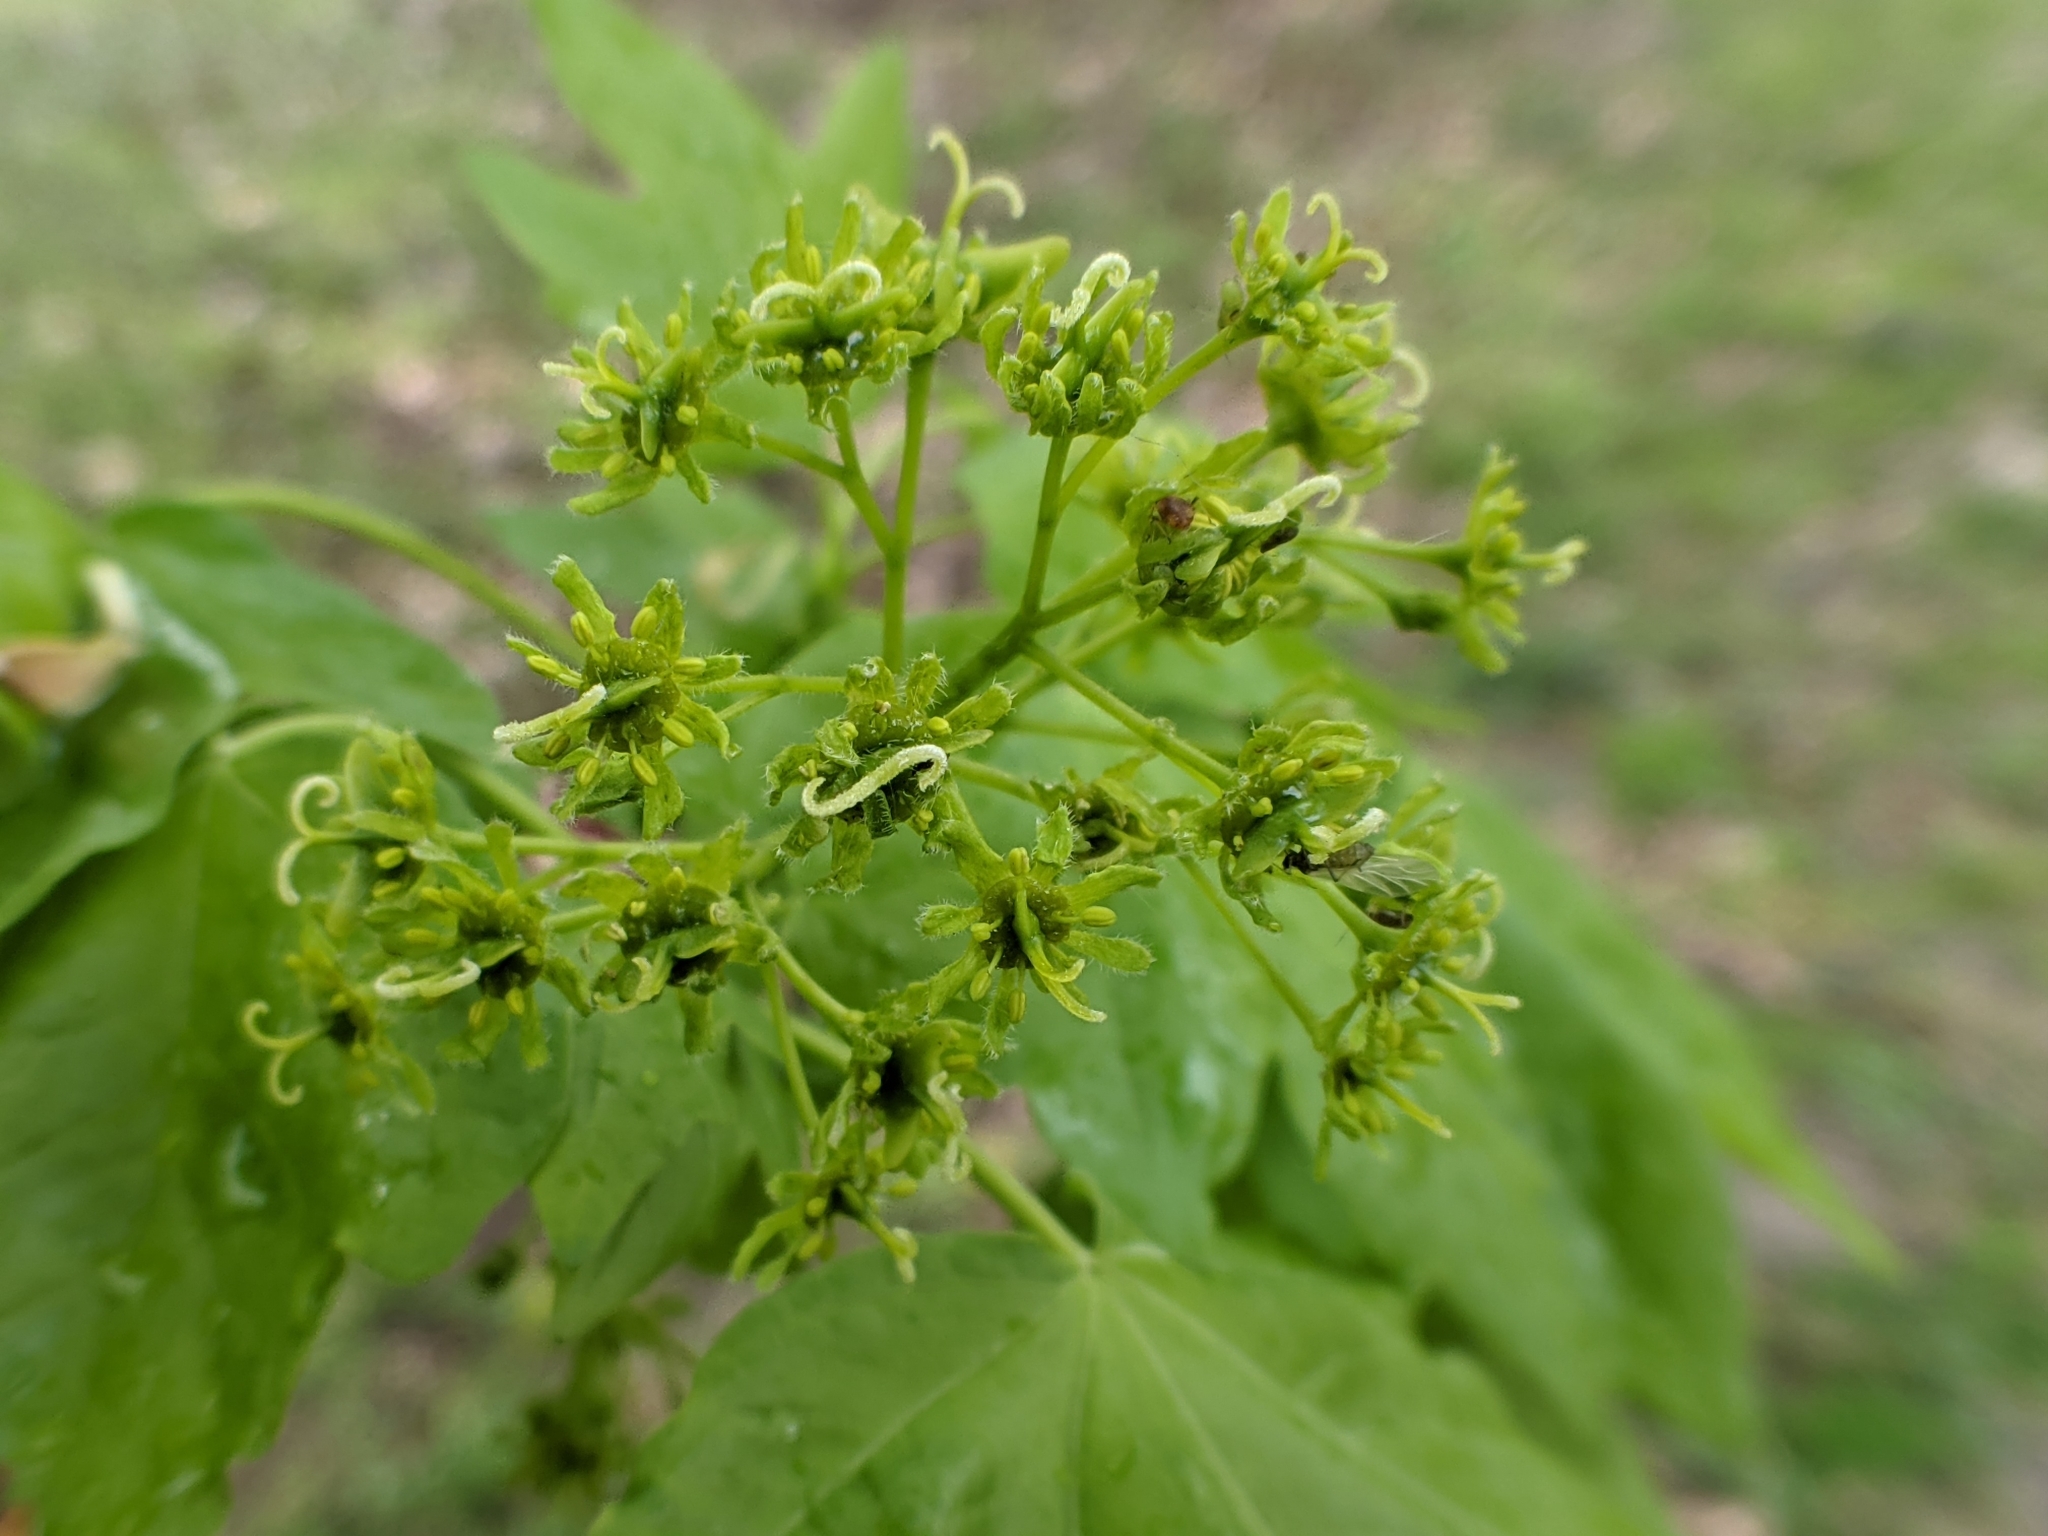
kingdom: Plantae
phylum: Tracheophyta
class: Magnoliopsida
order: Sapindales
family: Sapindaceae
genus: Acer
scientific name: Acer campestre
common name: Field maple
